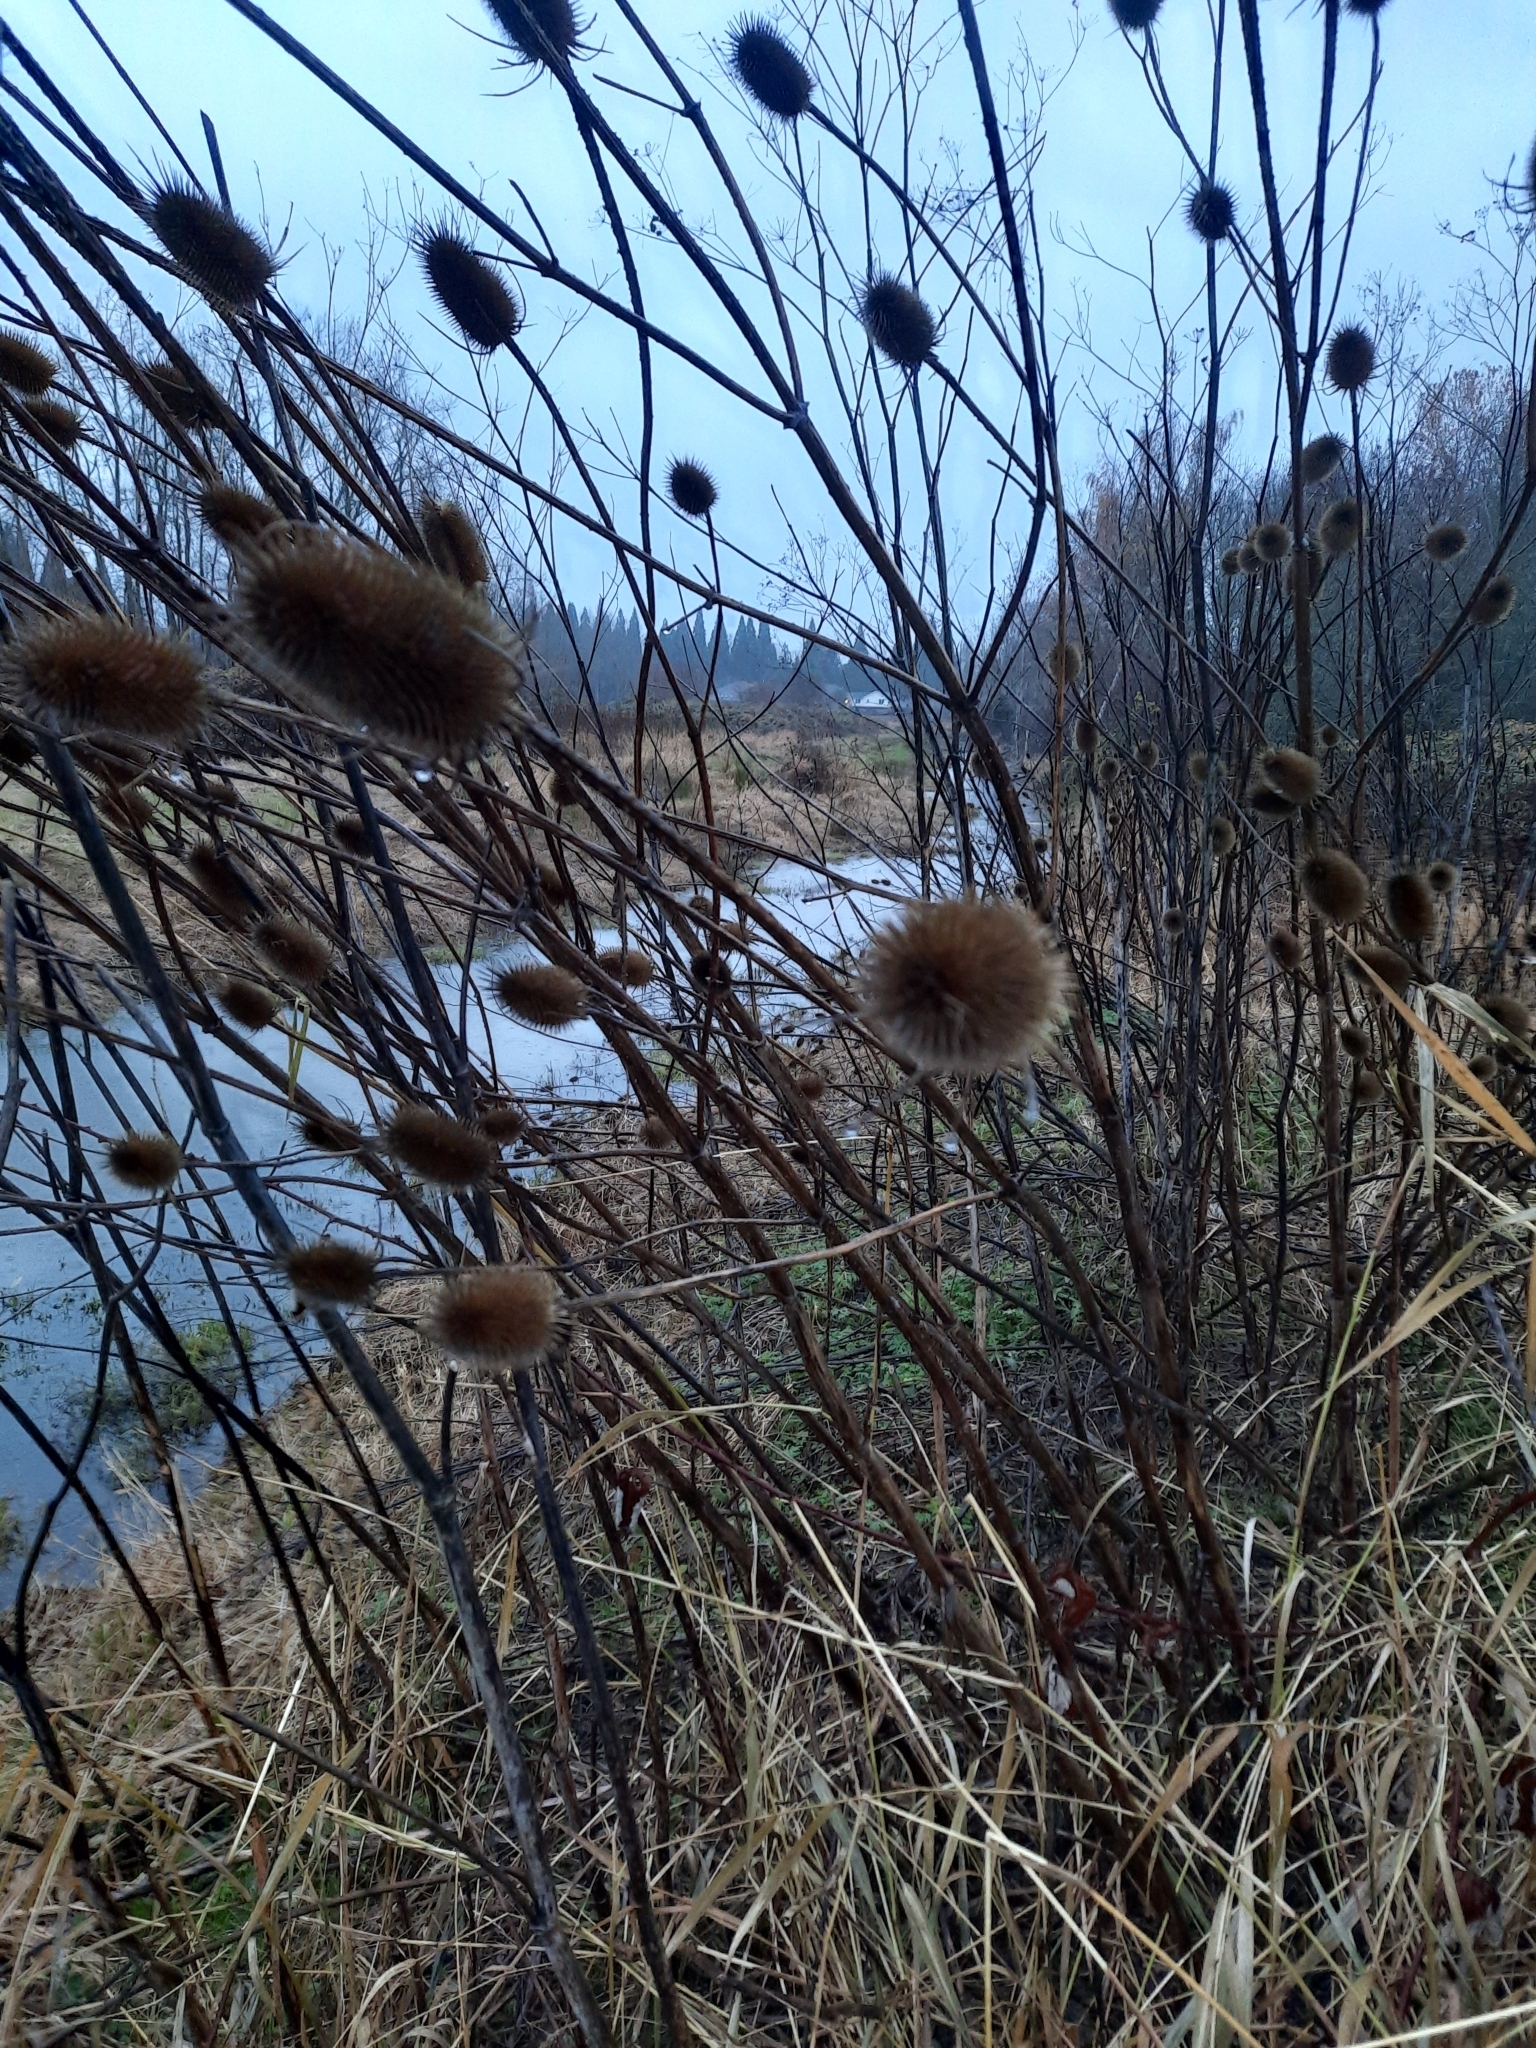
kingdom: Plantae
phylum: Tracheophyta
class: Magnoliopsida
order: Dipsacales
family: Caprifoliaceae
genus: Dipsacus
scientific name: Dipsacus fullonum
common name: Teasel
